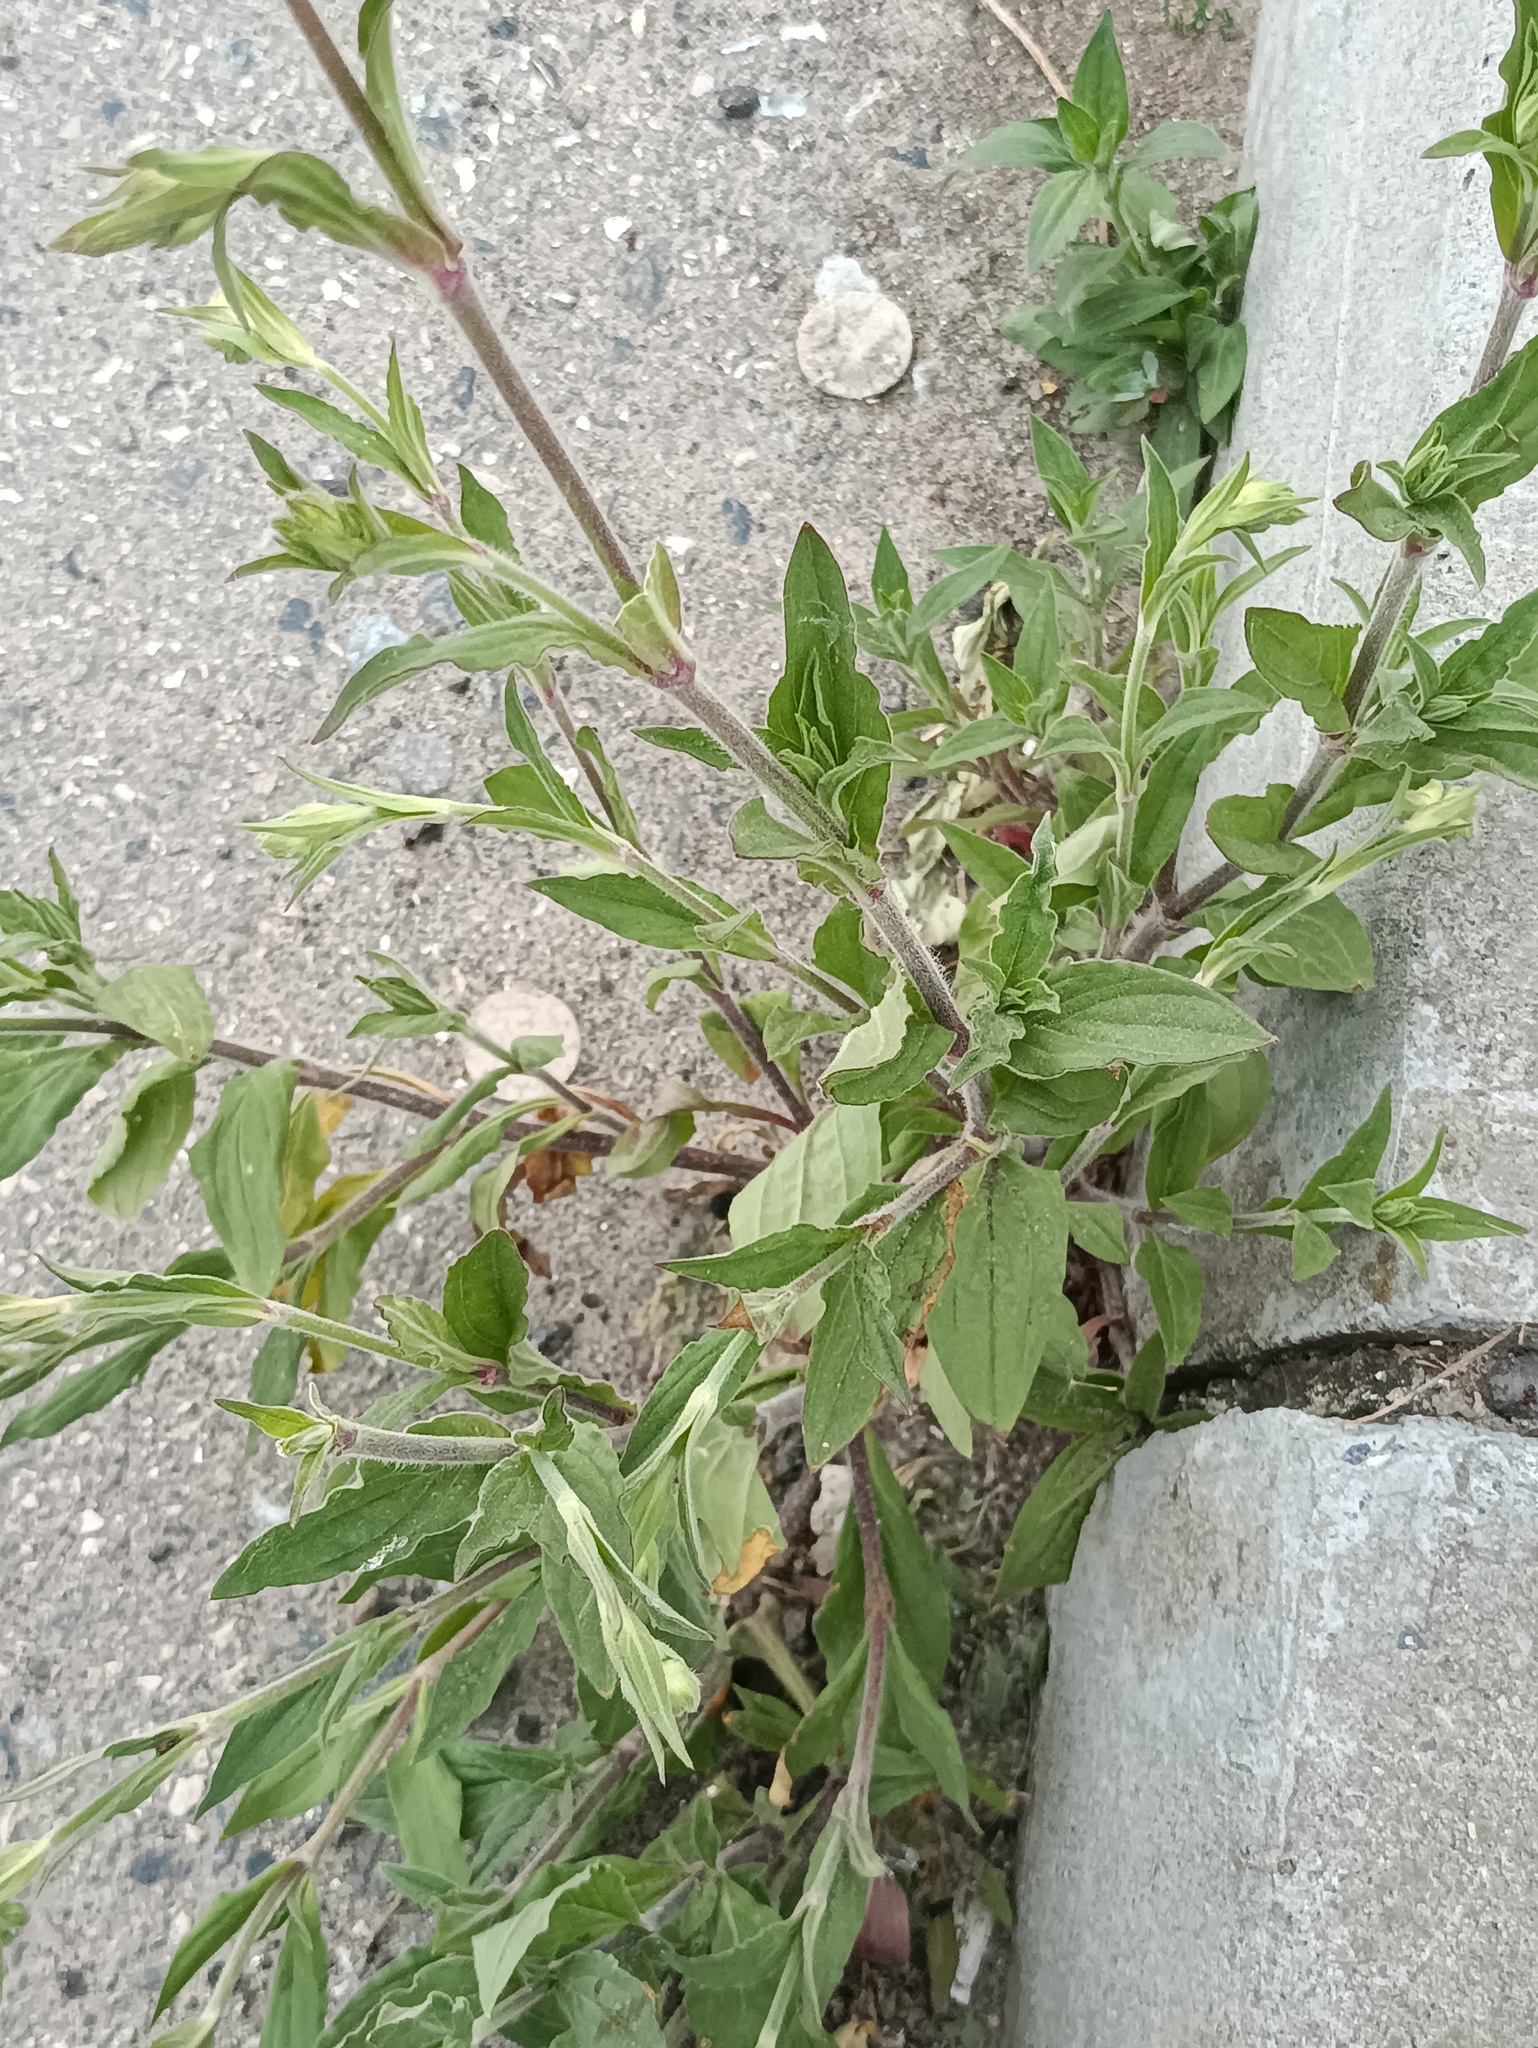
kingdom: Plantae
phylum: Tracheophyta
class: Magnoliopsida
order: Caryophyllales
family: Caryophyllaceae
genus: Silene
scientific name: Silene latifolia
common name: White campion
